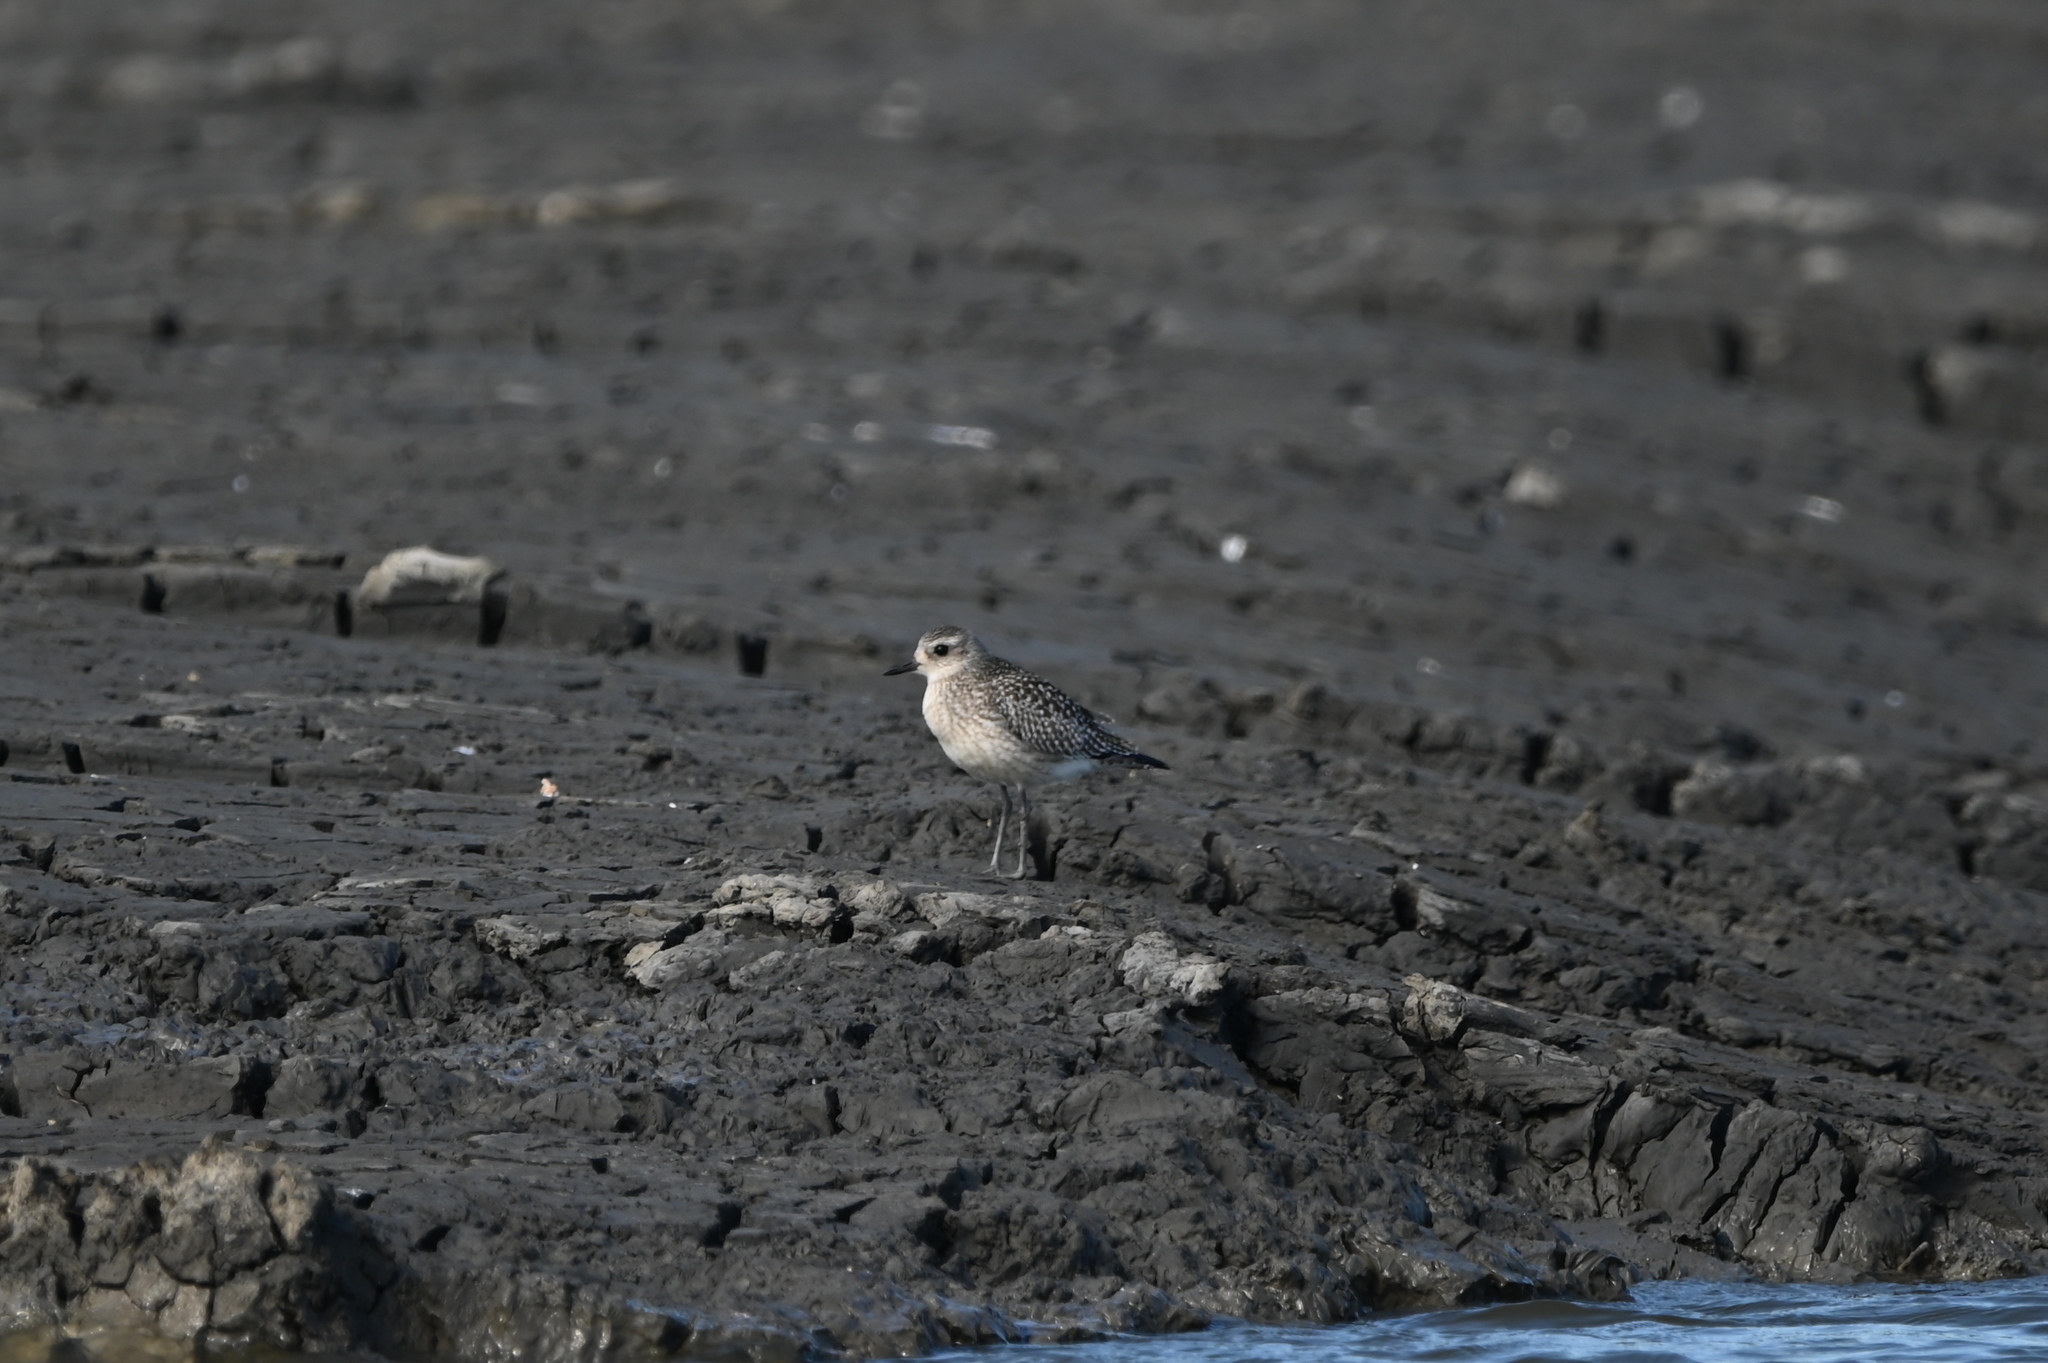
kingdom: Animalia
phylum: Chordata
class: Aves
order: Charadriiformes
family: Charadriidae
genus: Pluvialis
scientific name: Pluvialis squatarola
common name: Grey plover
